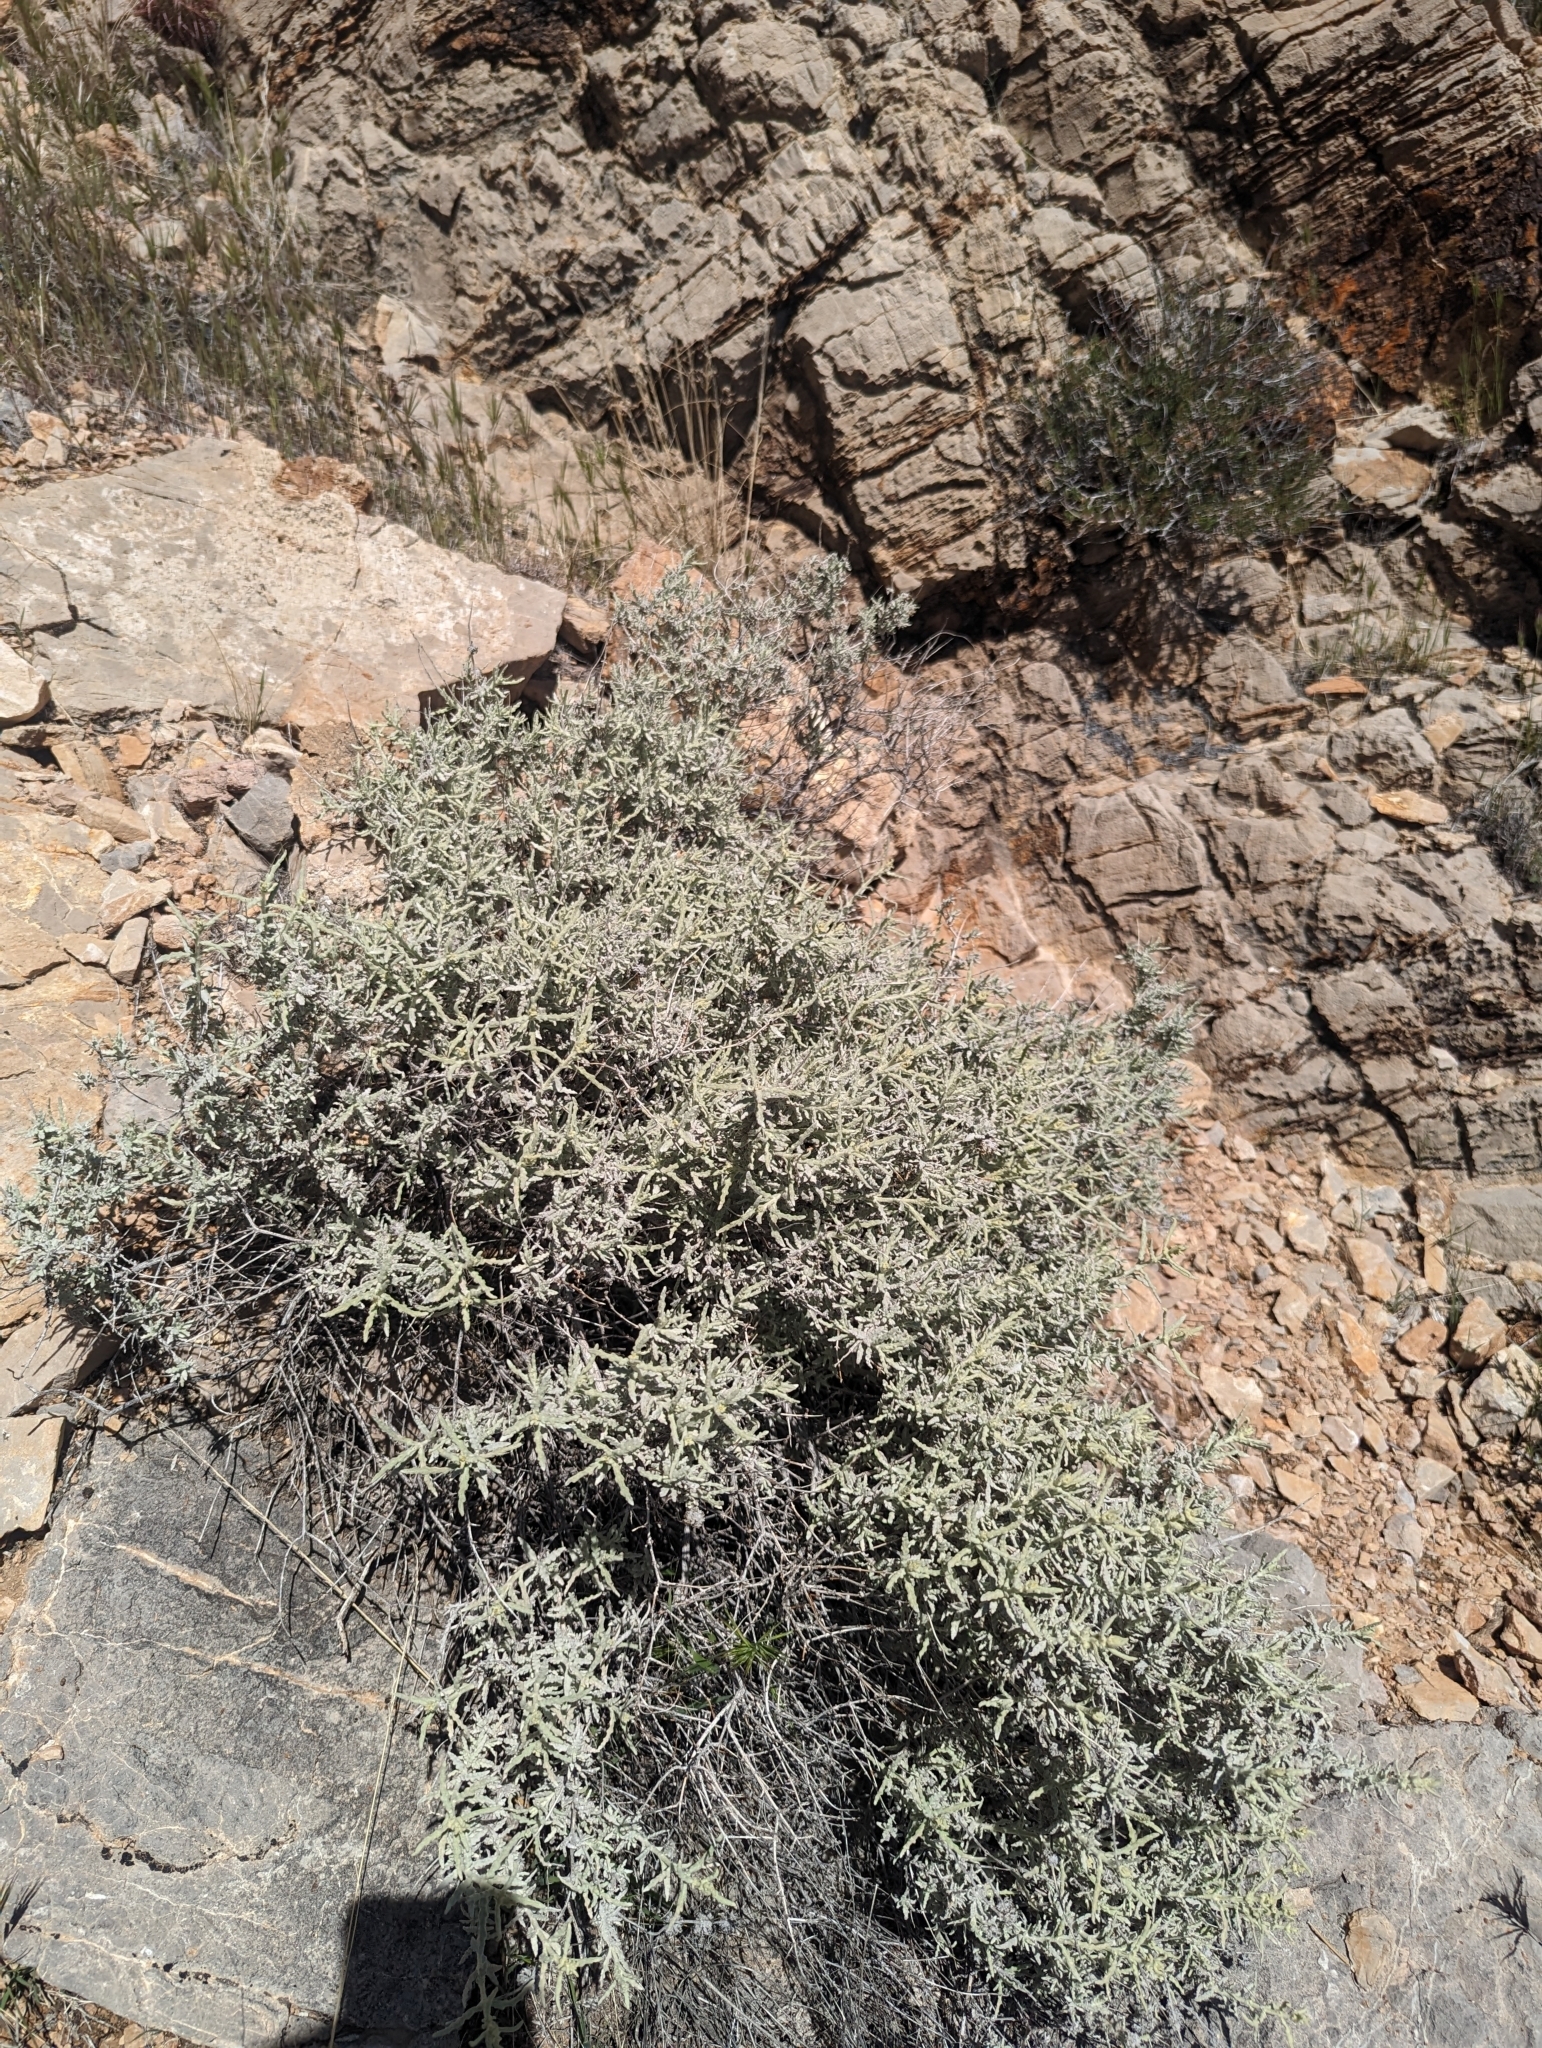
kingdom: Plantae
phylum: Tracheophyta
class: Magnoliopsida
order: Lamiales
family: Scrophulariaceae
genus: Buddleja
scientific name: Buddleja utahensis
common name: Utah butterfly-bush
